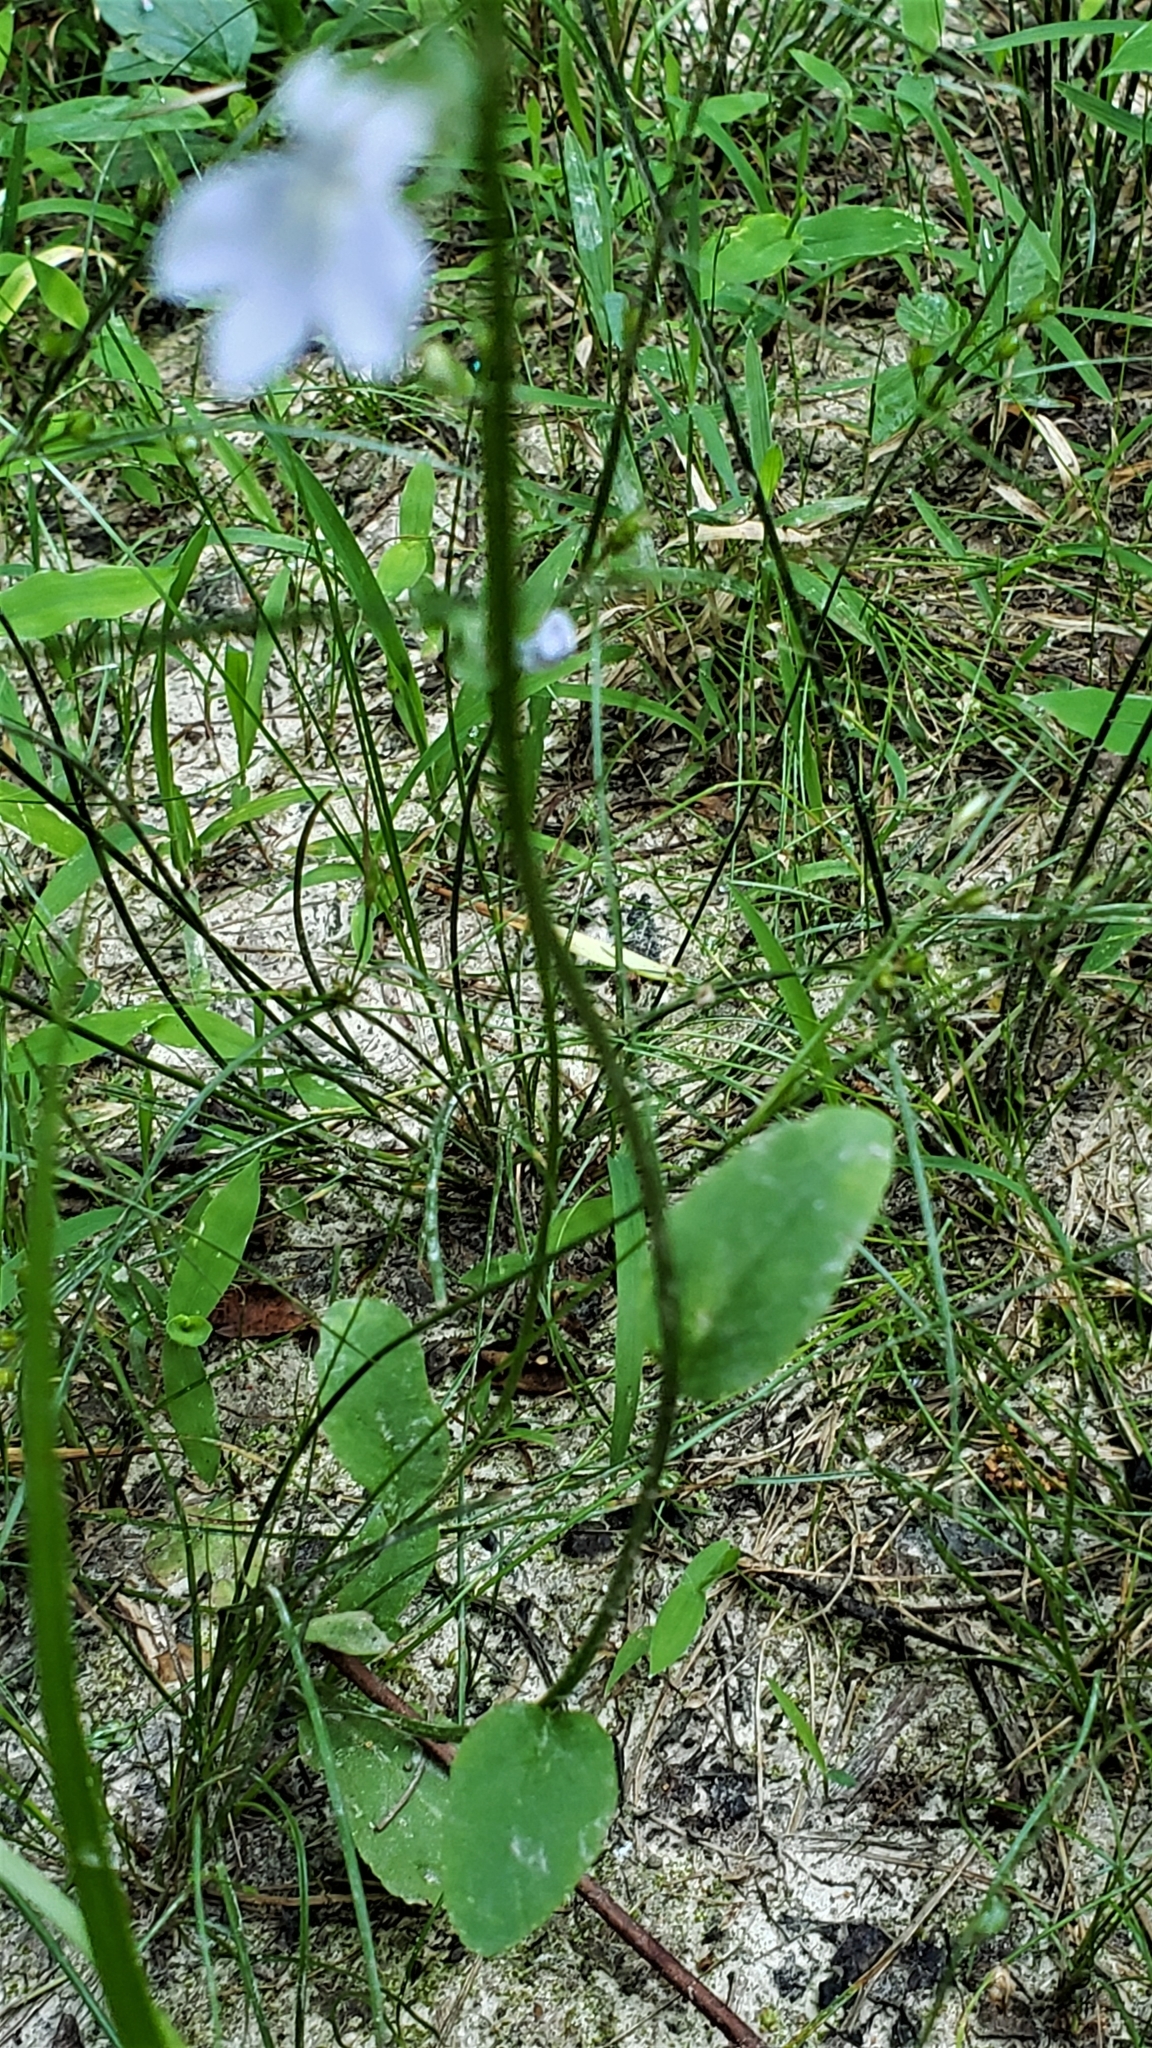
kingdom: Plantae
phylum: Tracheophyta
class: Magnoliopsida
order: Asterales
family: Campanulaceae
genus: Lobelia
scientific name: Lobelia appendiculata
